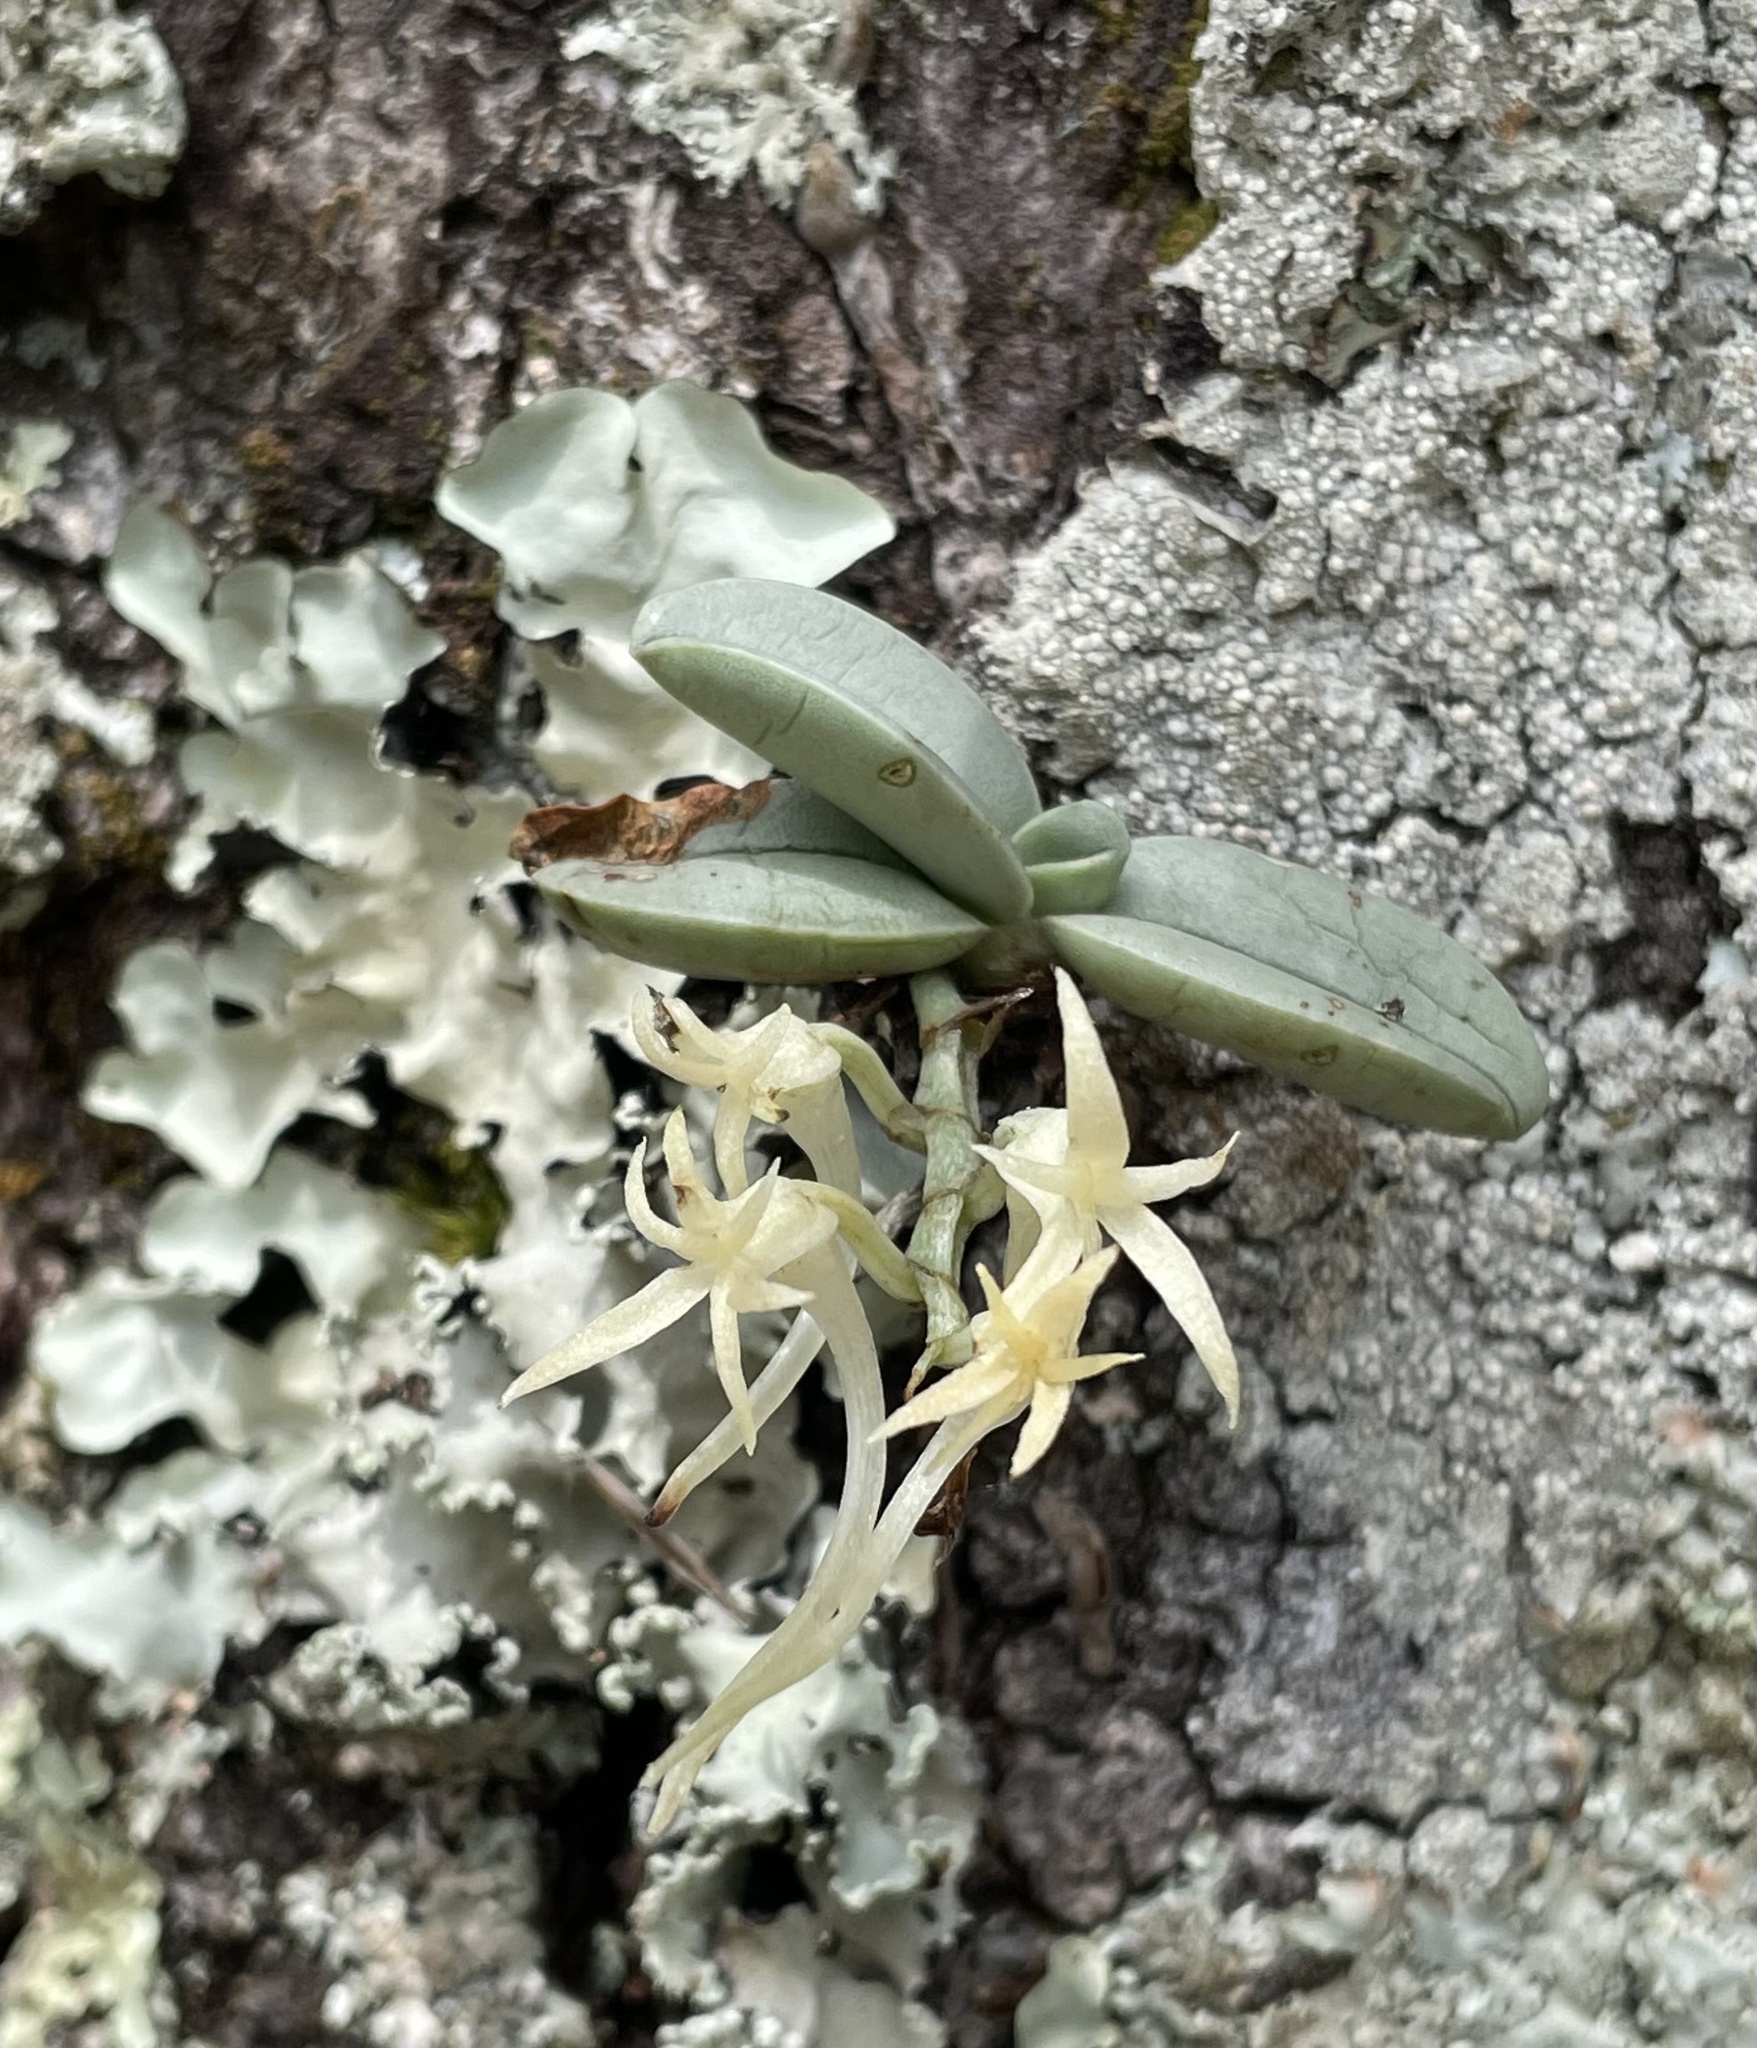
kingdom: Plantae
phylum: Tracheophyta
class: Liliopsida
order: Asparagales
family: Orchidaceae
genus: Cyrtorchis
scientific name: Cyrtorchis crassifolia
